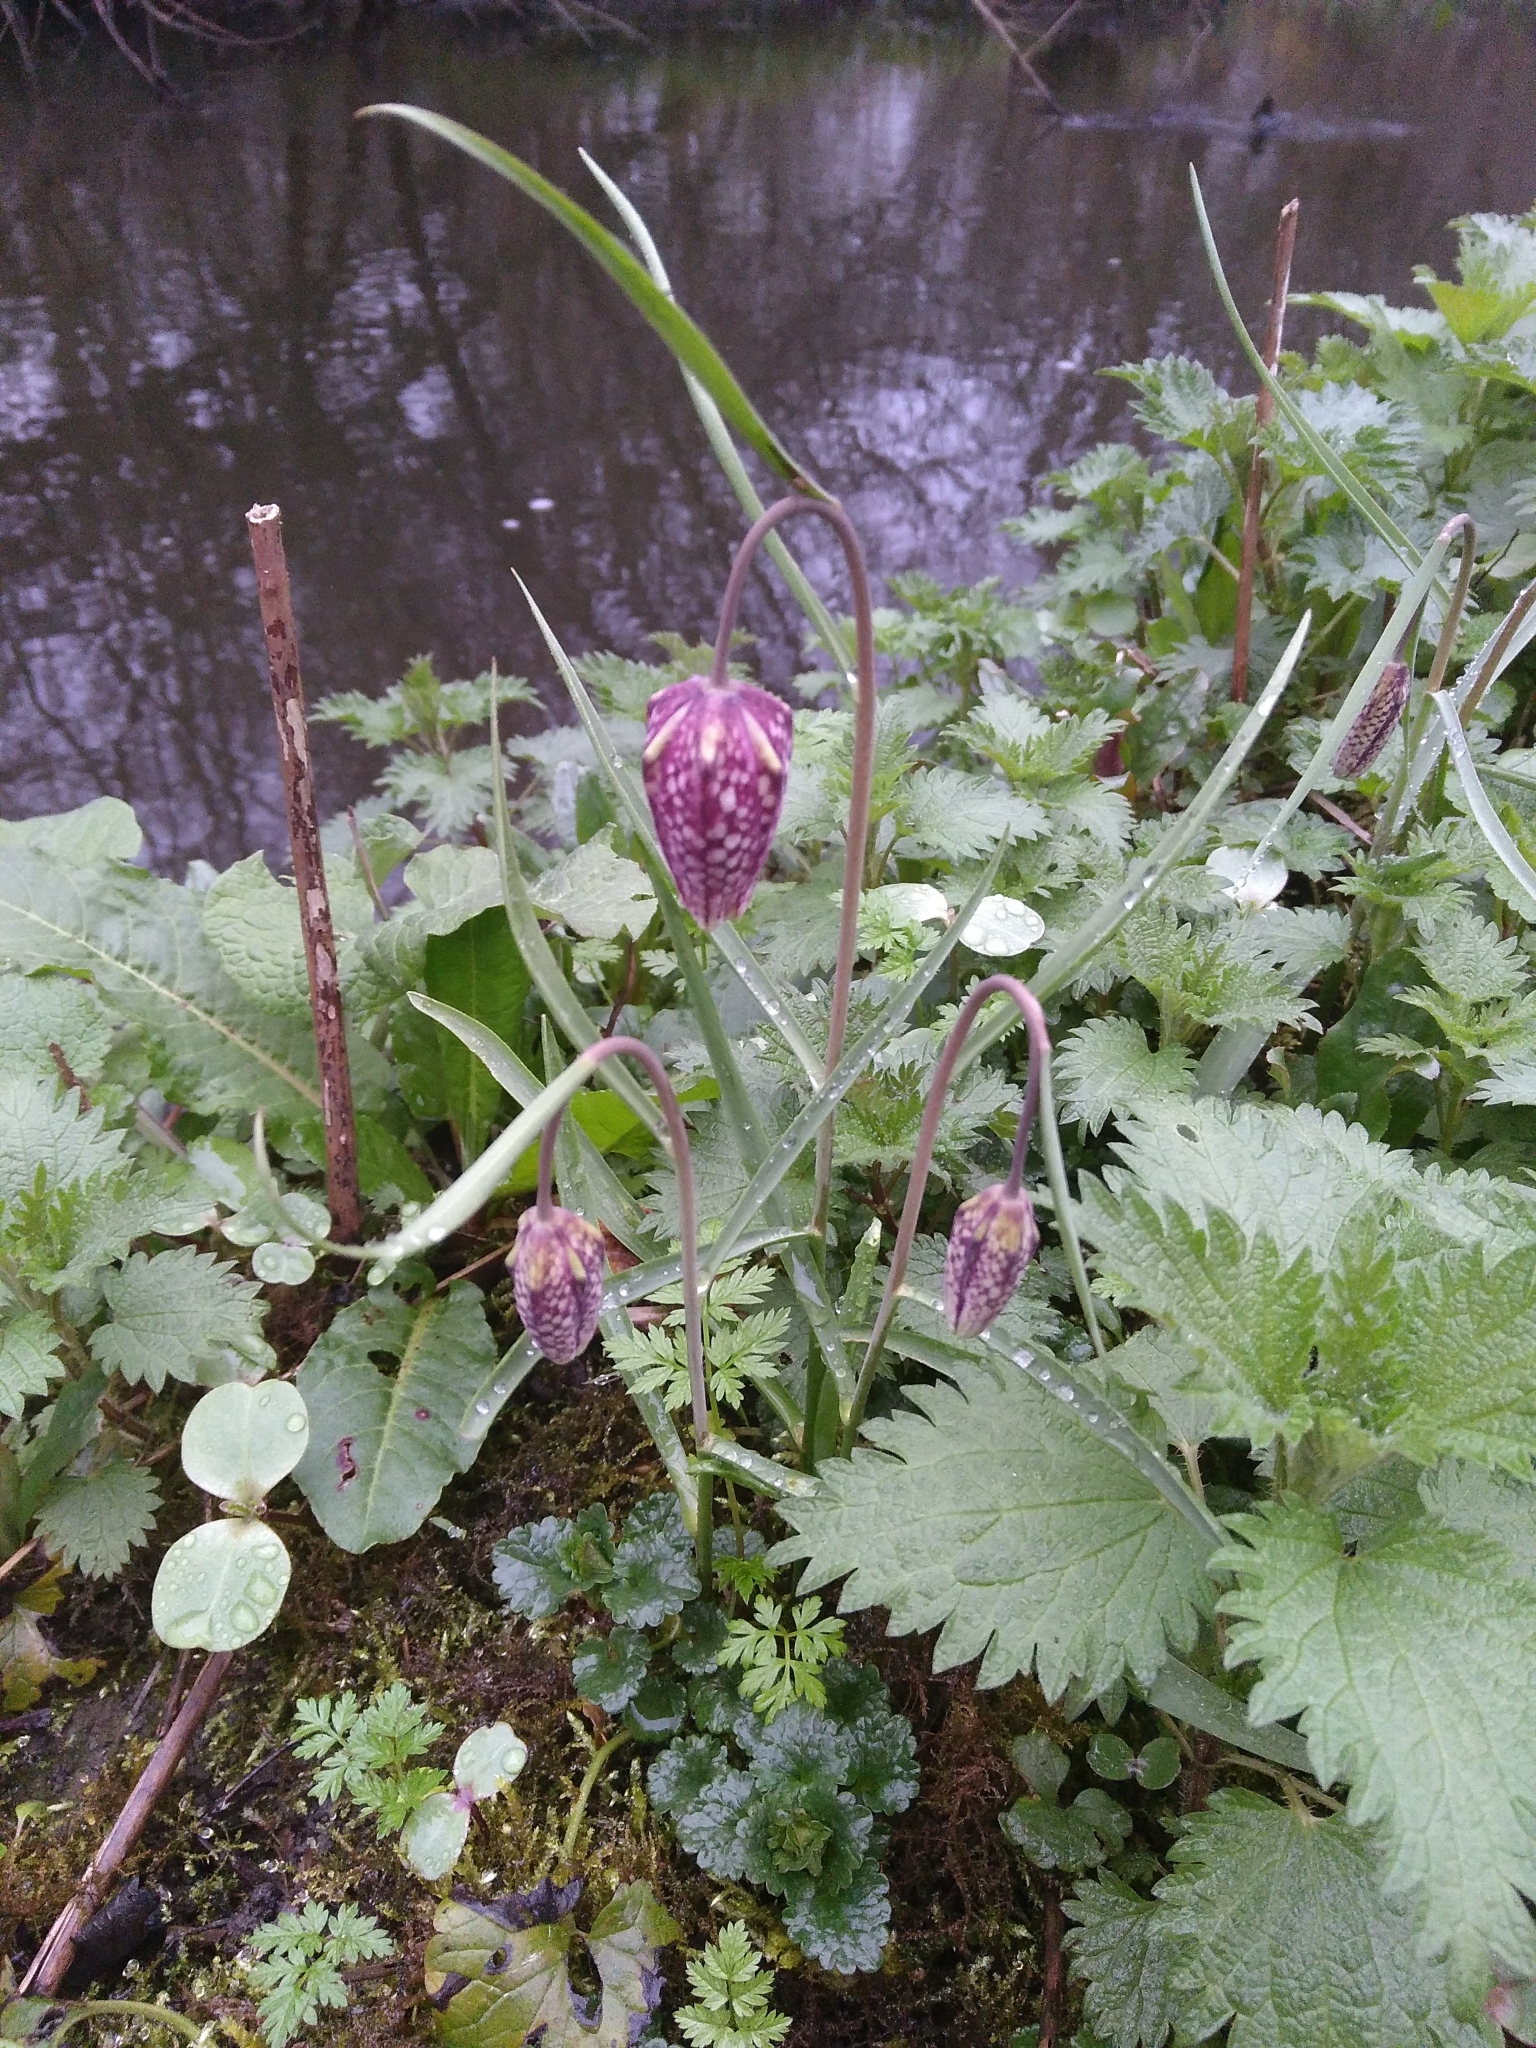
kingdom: Plantae
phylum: Tracheophyta
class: Liliopsida
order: Liliales
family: Liliaceae
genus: Fritillaria
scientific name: Fritillaria meleagris
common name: Fritillary
